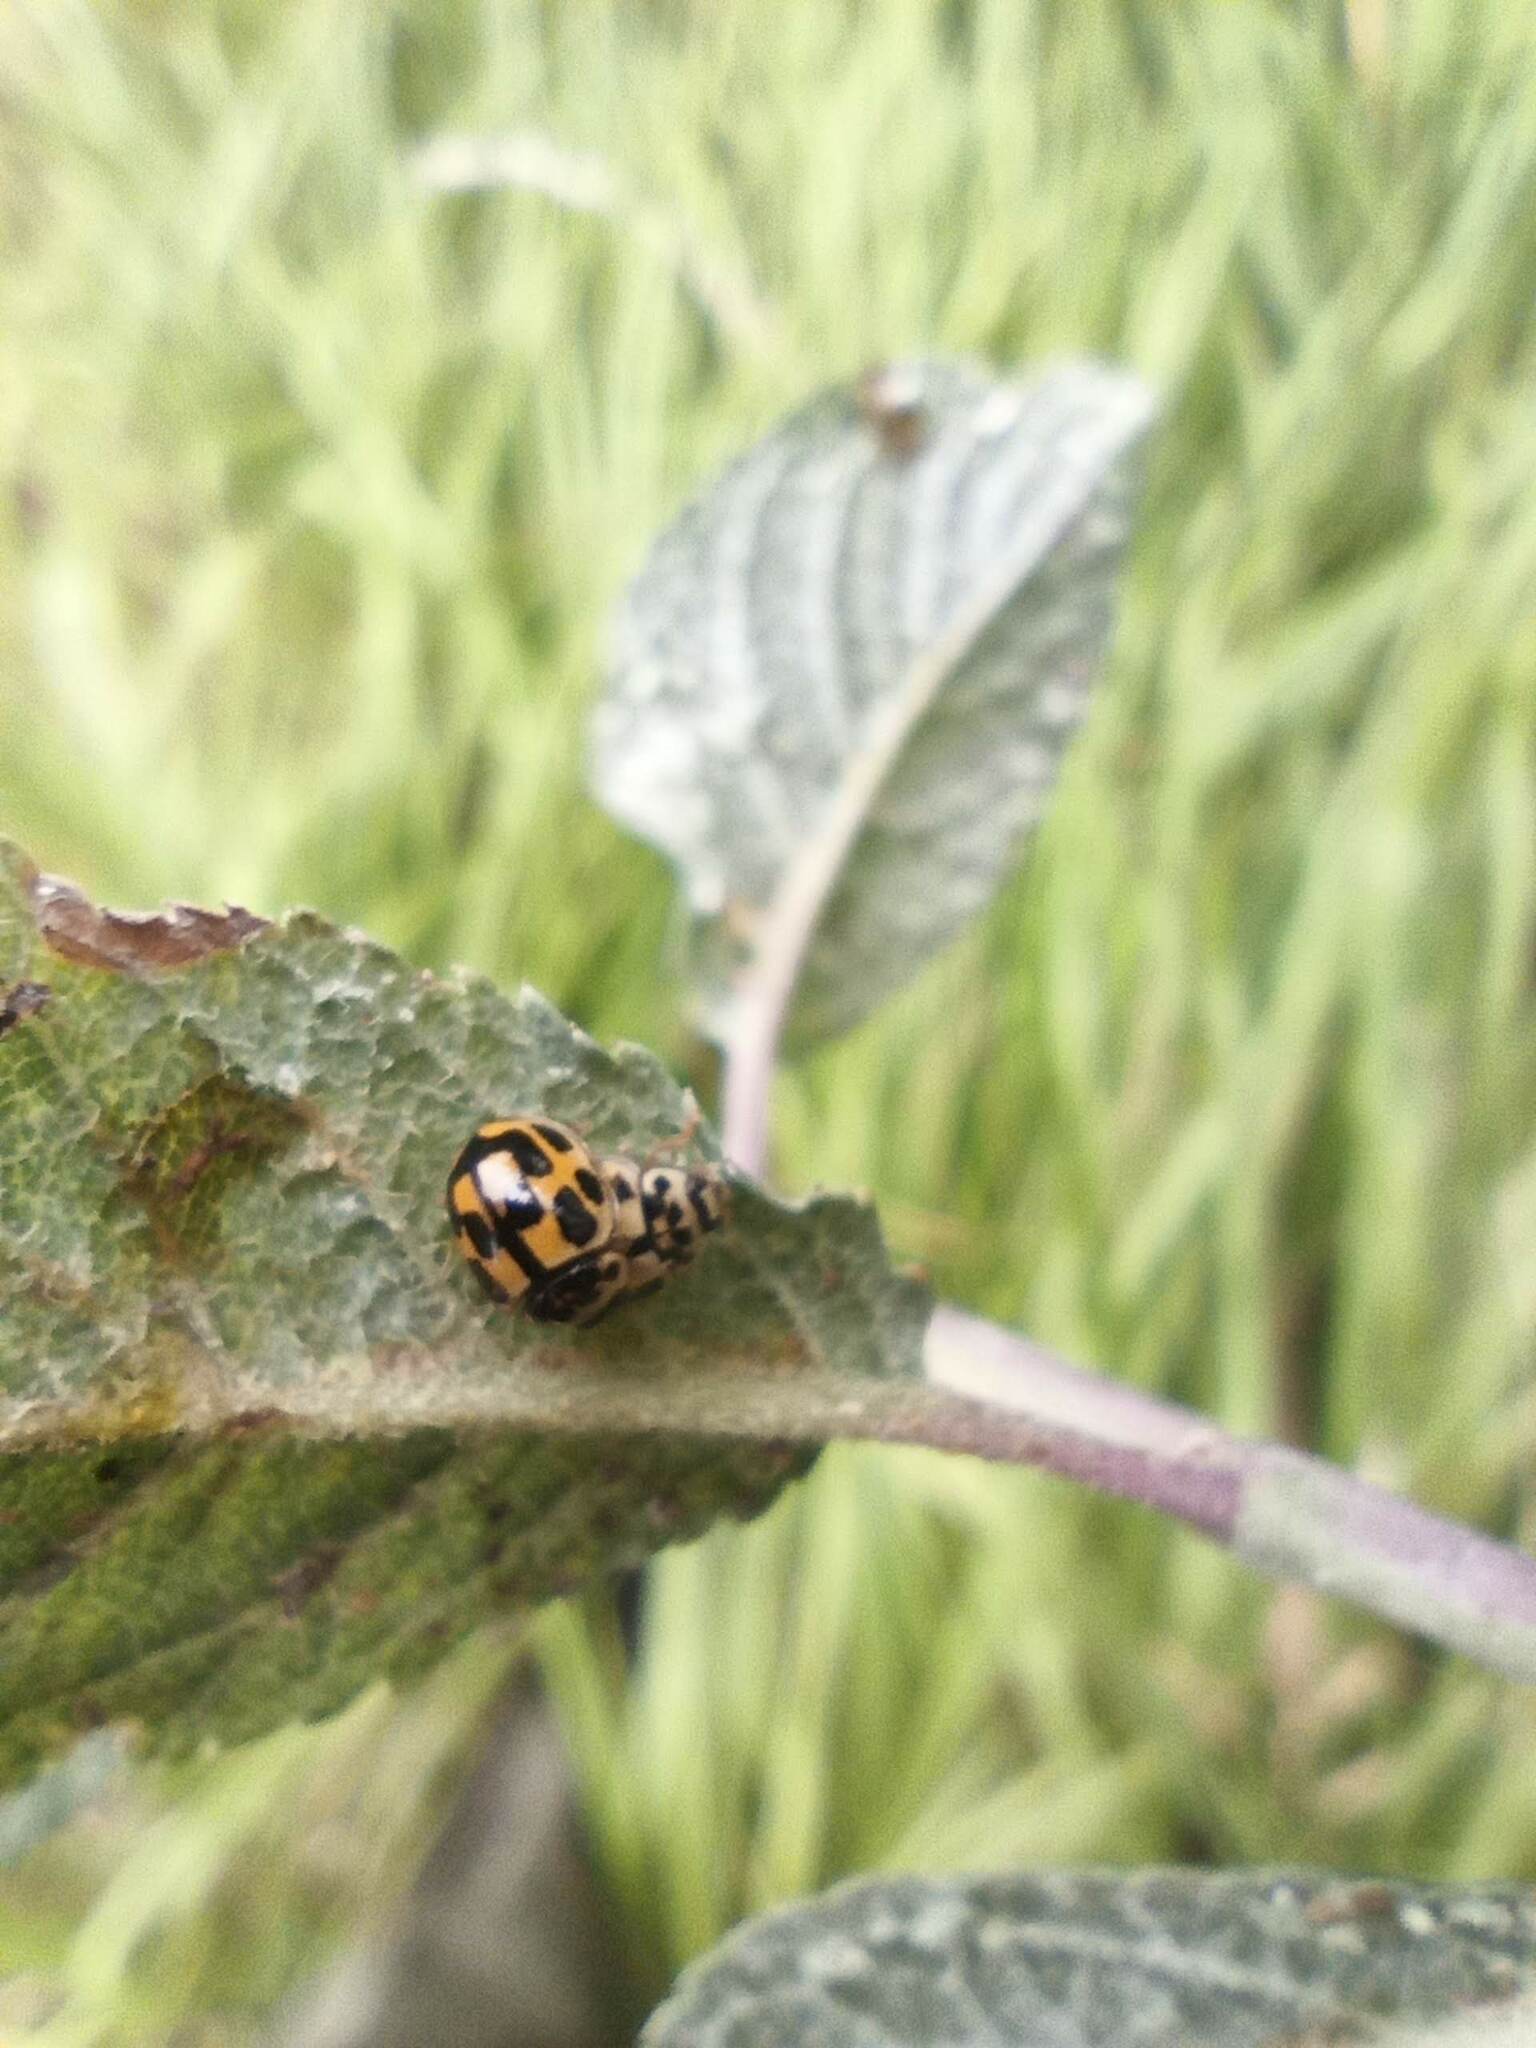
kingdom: Animalia
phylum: Arthropoda
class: Insecta
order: Coleoptera
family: Coccinellidae
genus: Propylaea
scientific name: Propylaea quatuordecimpunctata
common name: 14-spotted ladybird beetle
